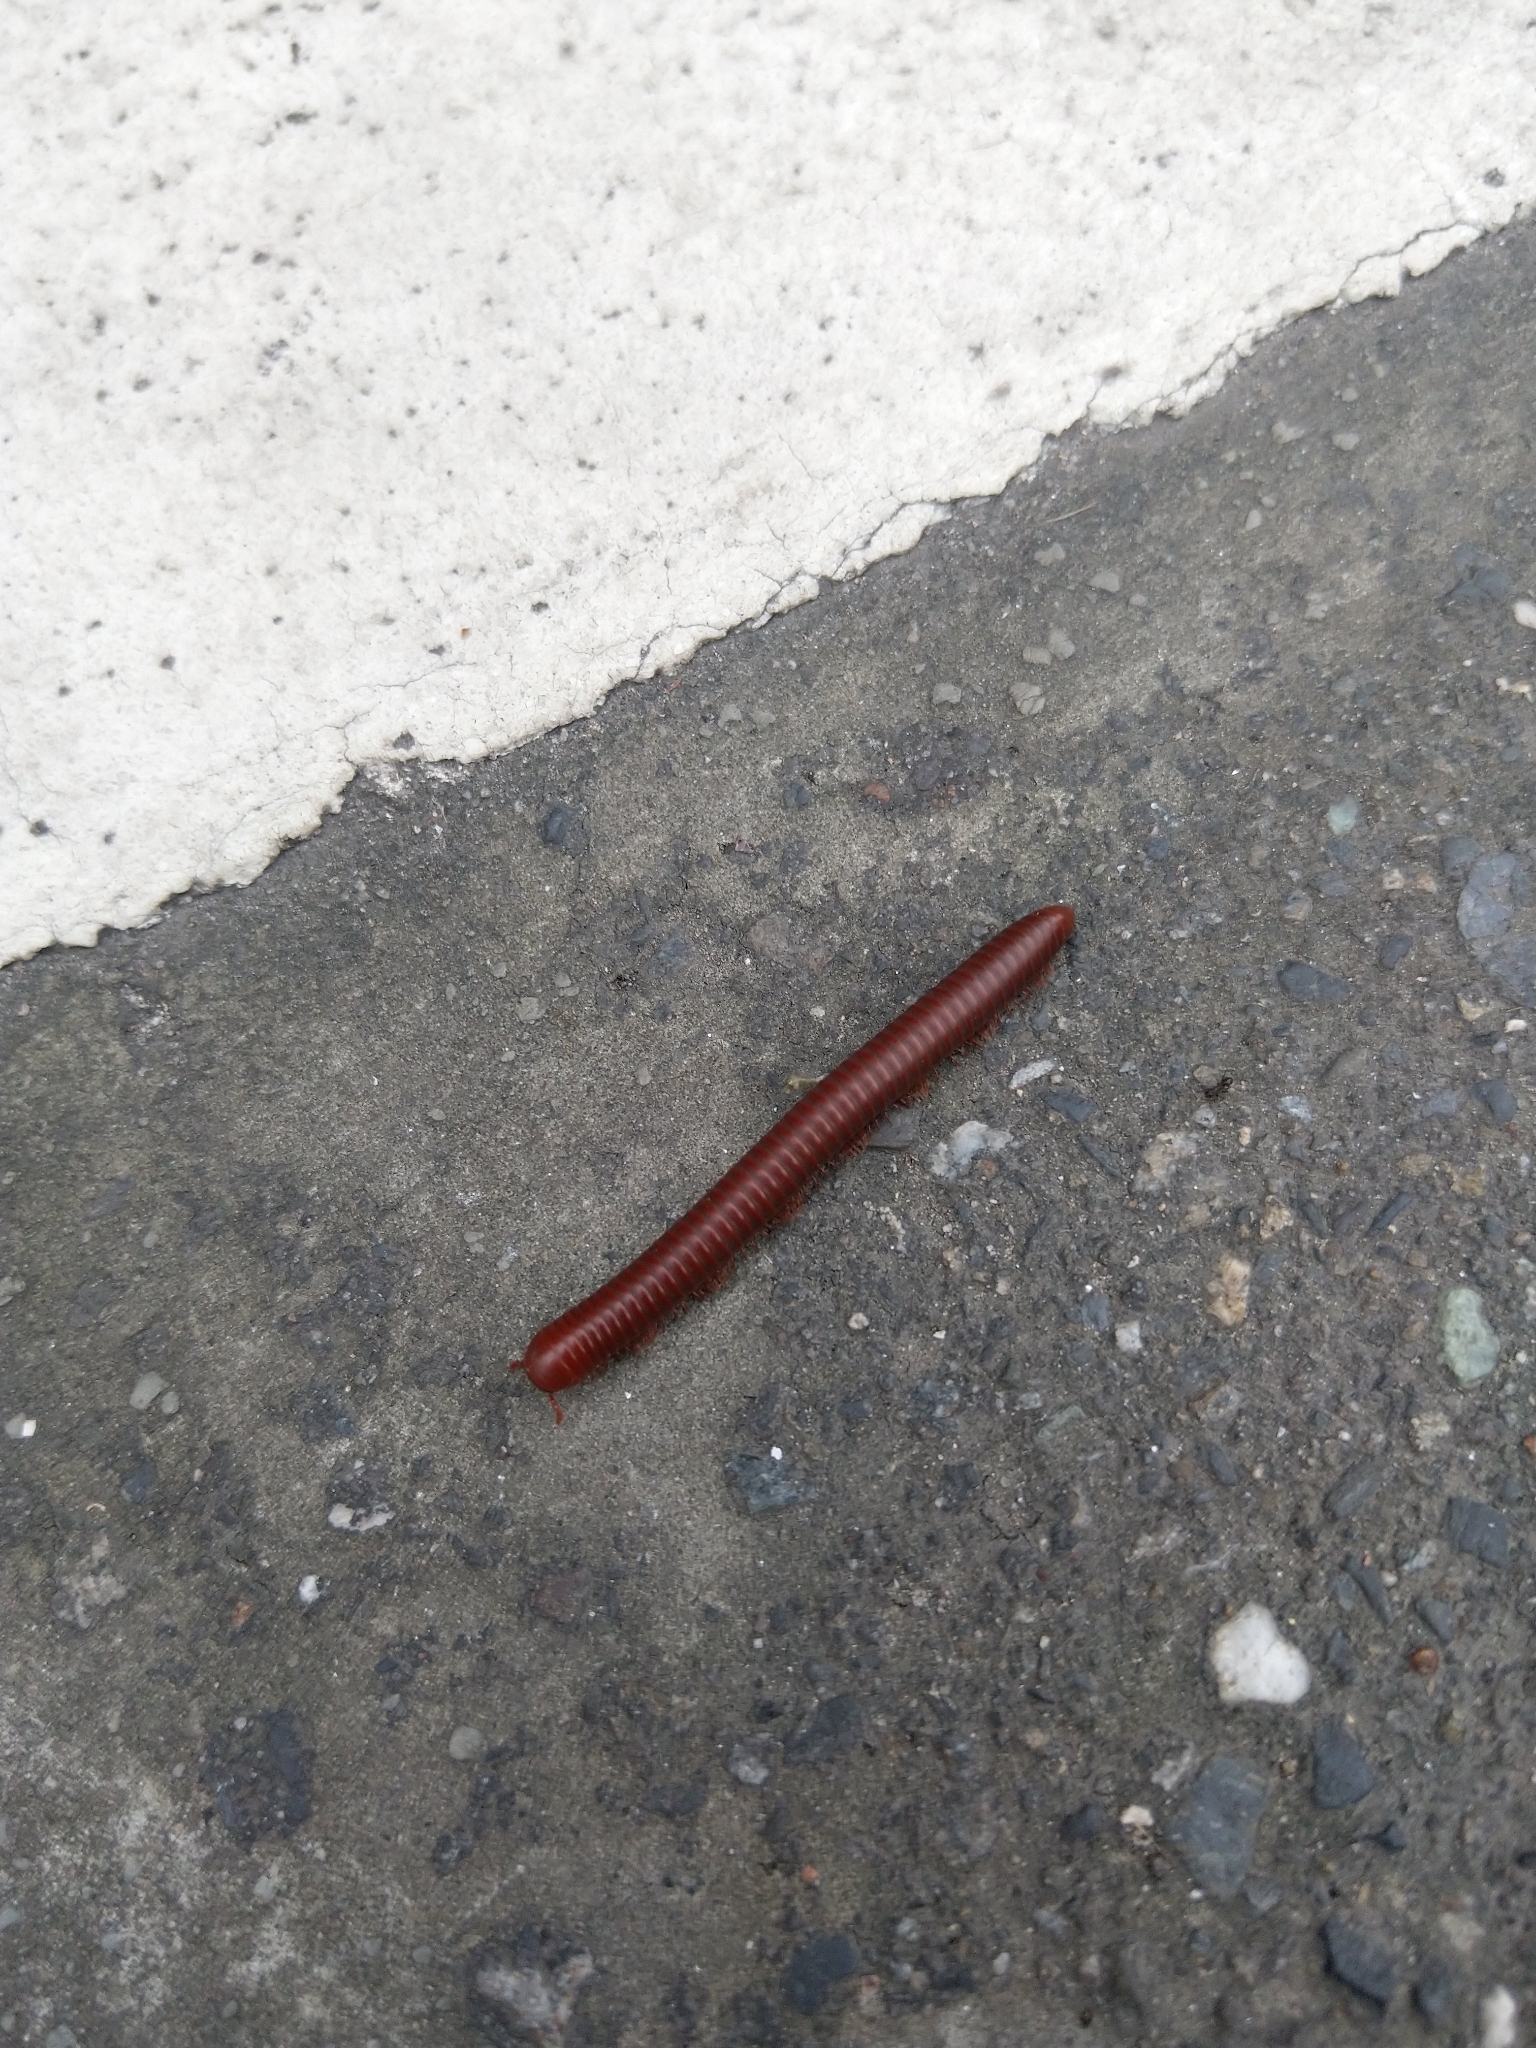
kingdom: Animalia
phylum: Arthropoda
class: Diplopoda
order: Spirobolida
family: Pachybolidae
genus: Trigoniulus
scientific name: Trigoniulus corallinus
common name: Millipede
